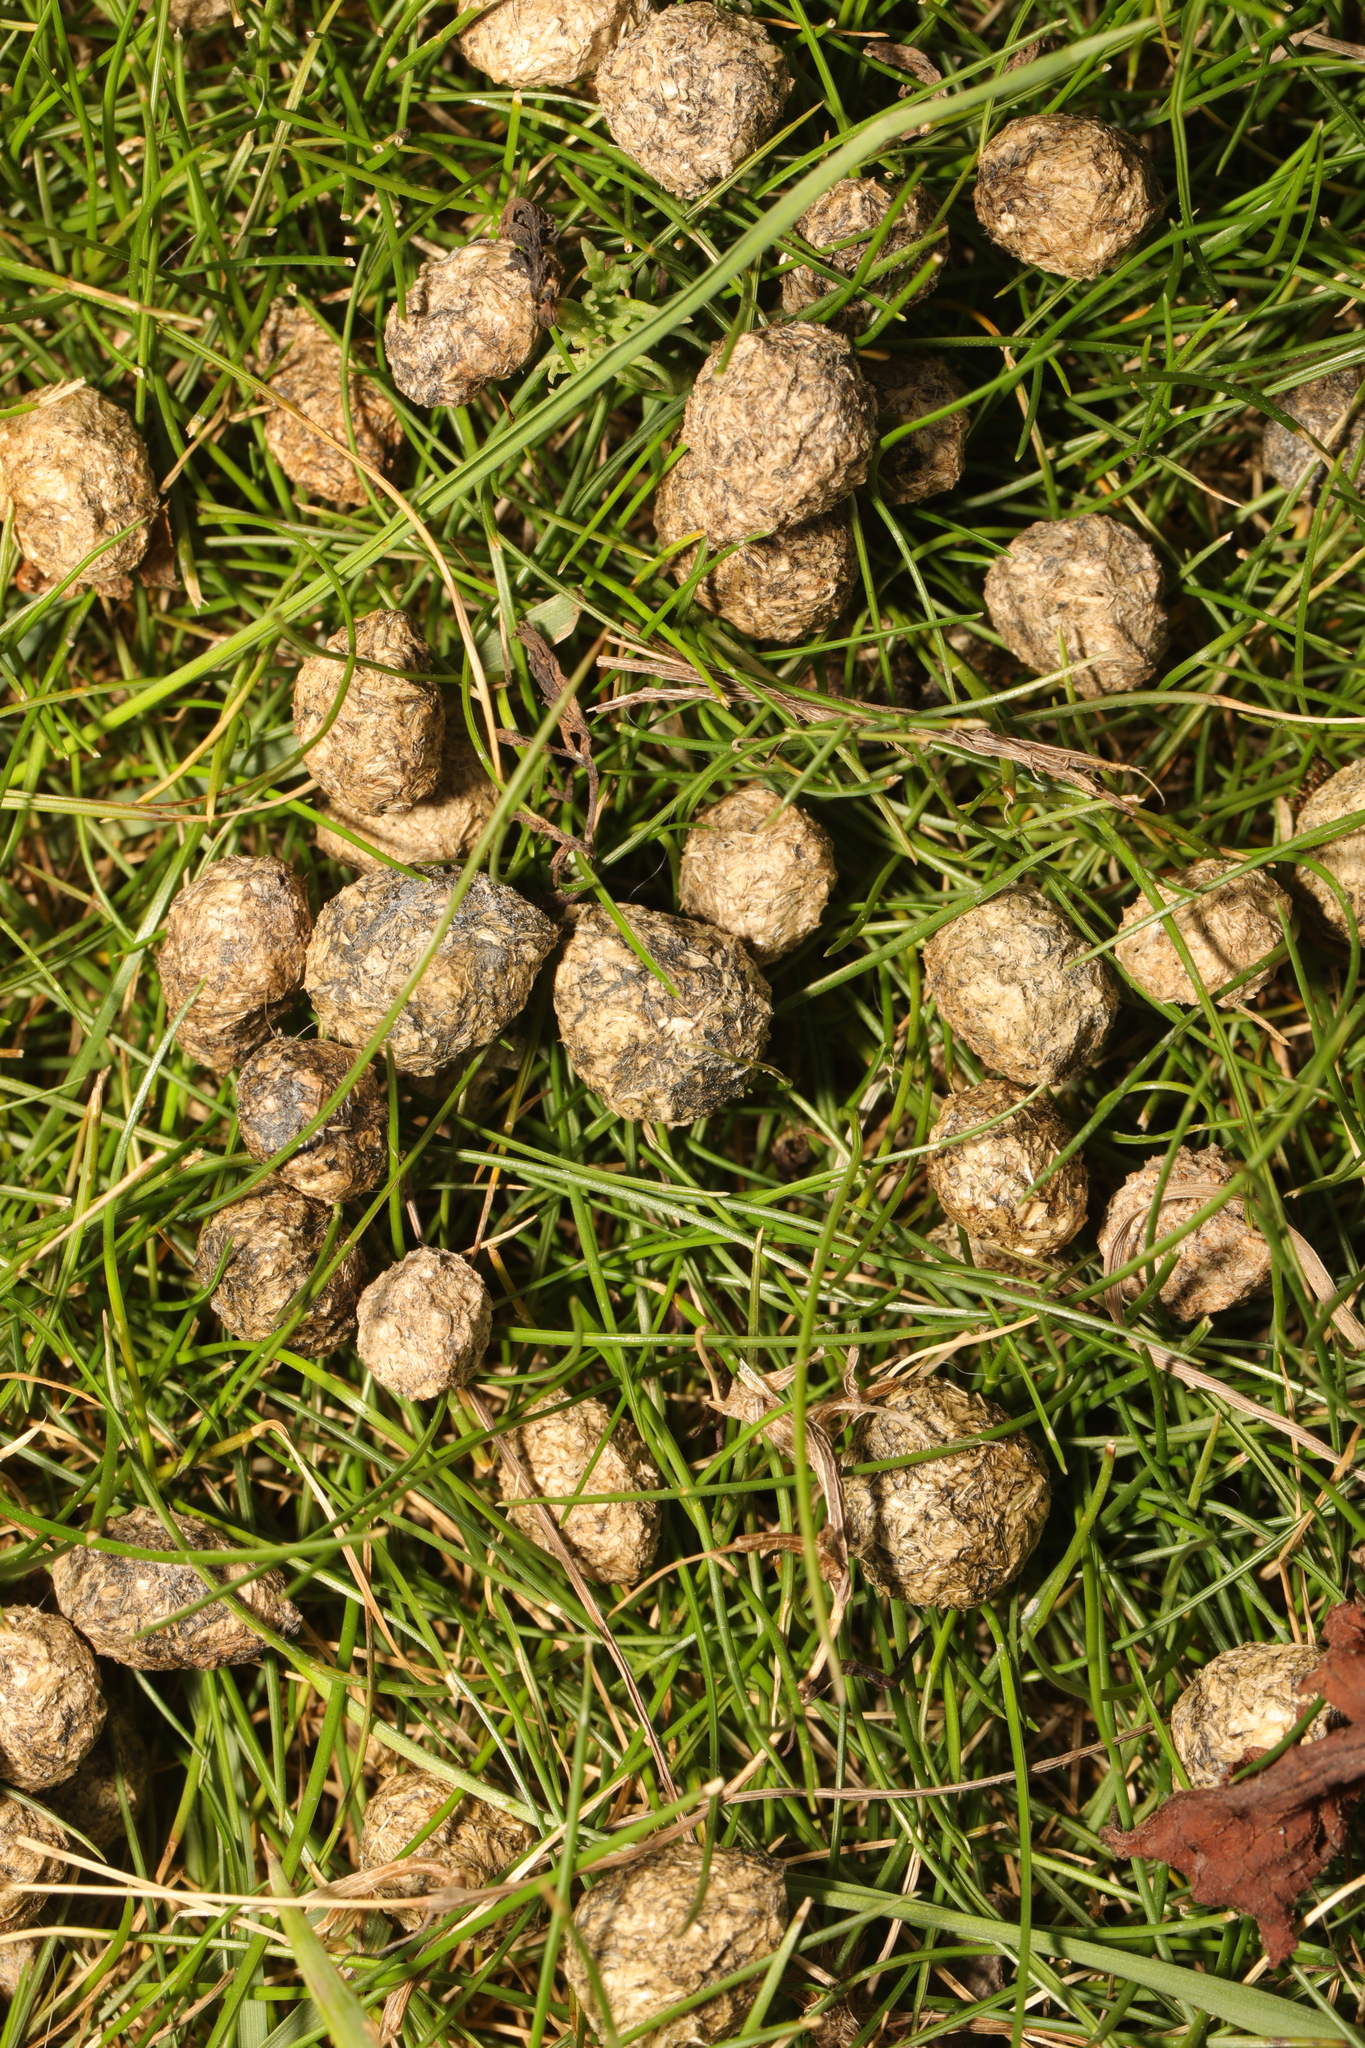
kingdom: Animalia
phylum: Chordata
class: Mammalia
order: Lagomorpha
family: Leporidae
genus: Oryctolagus
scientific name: Oryctolagus cuniculus
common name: European rabbit
